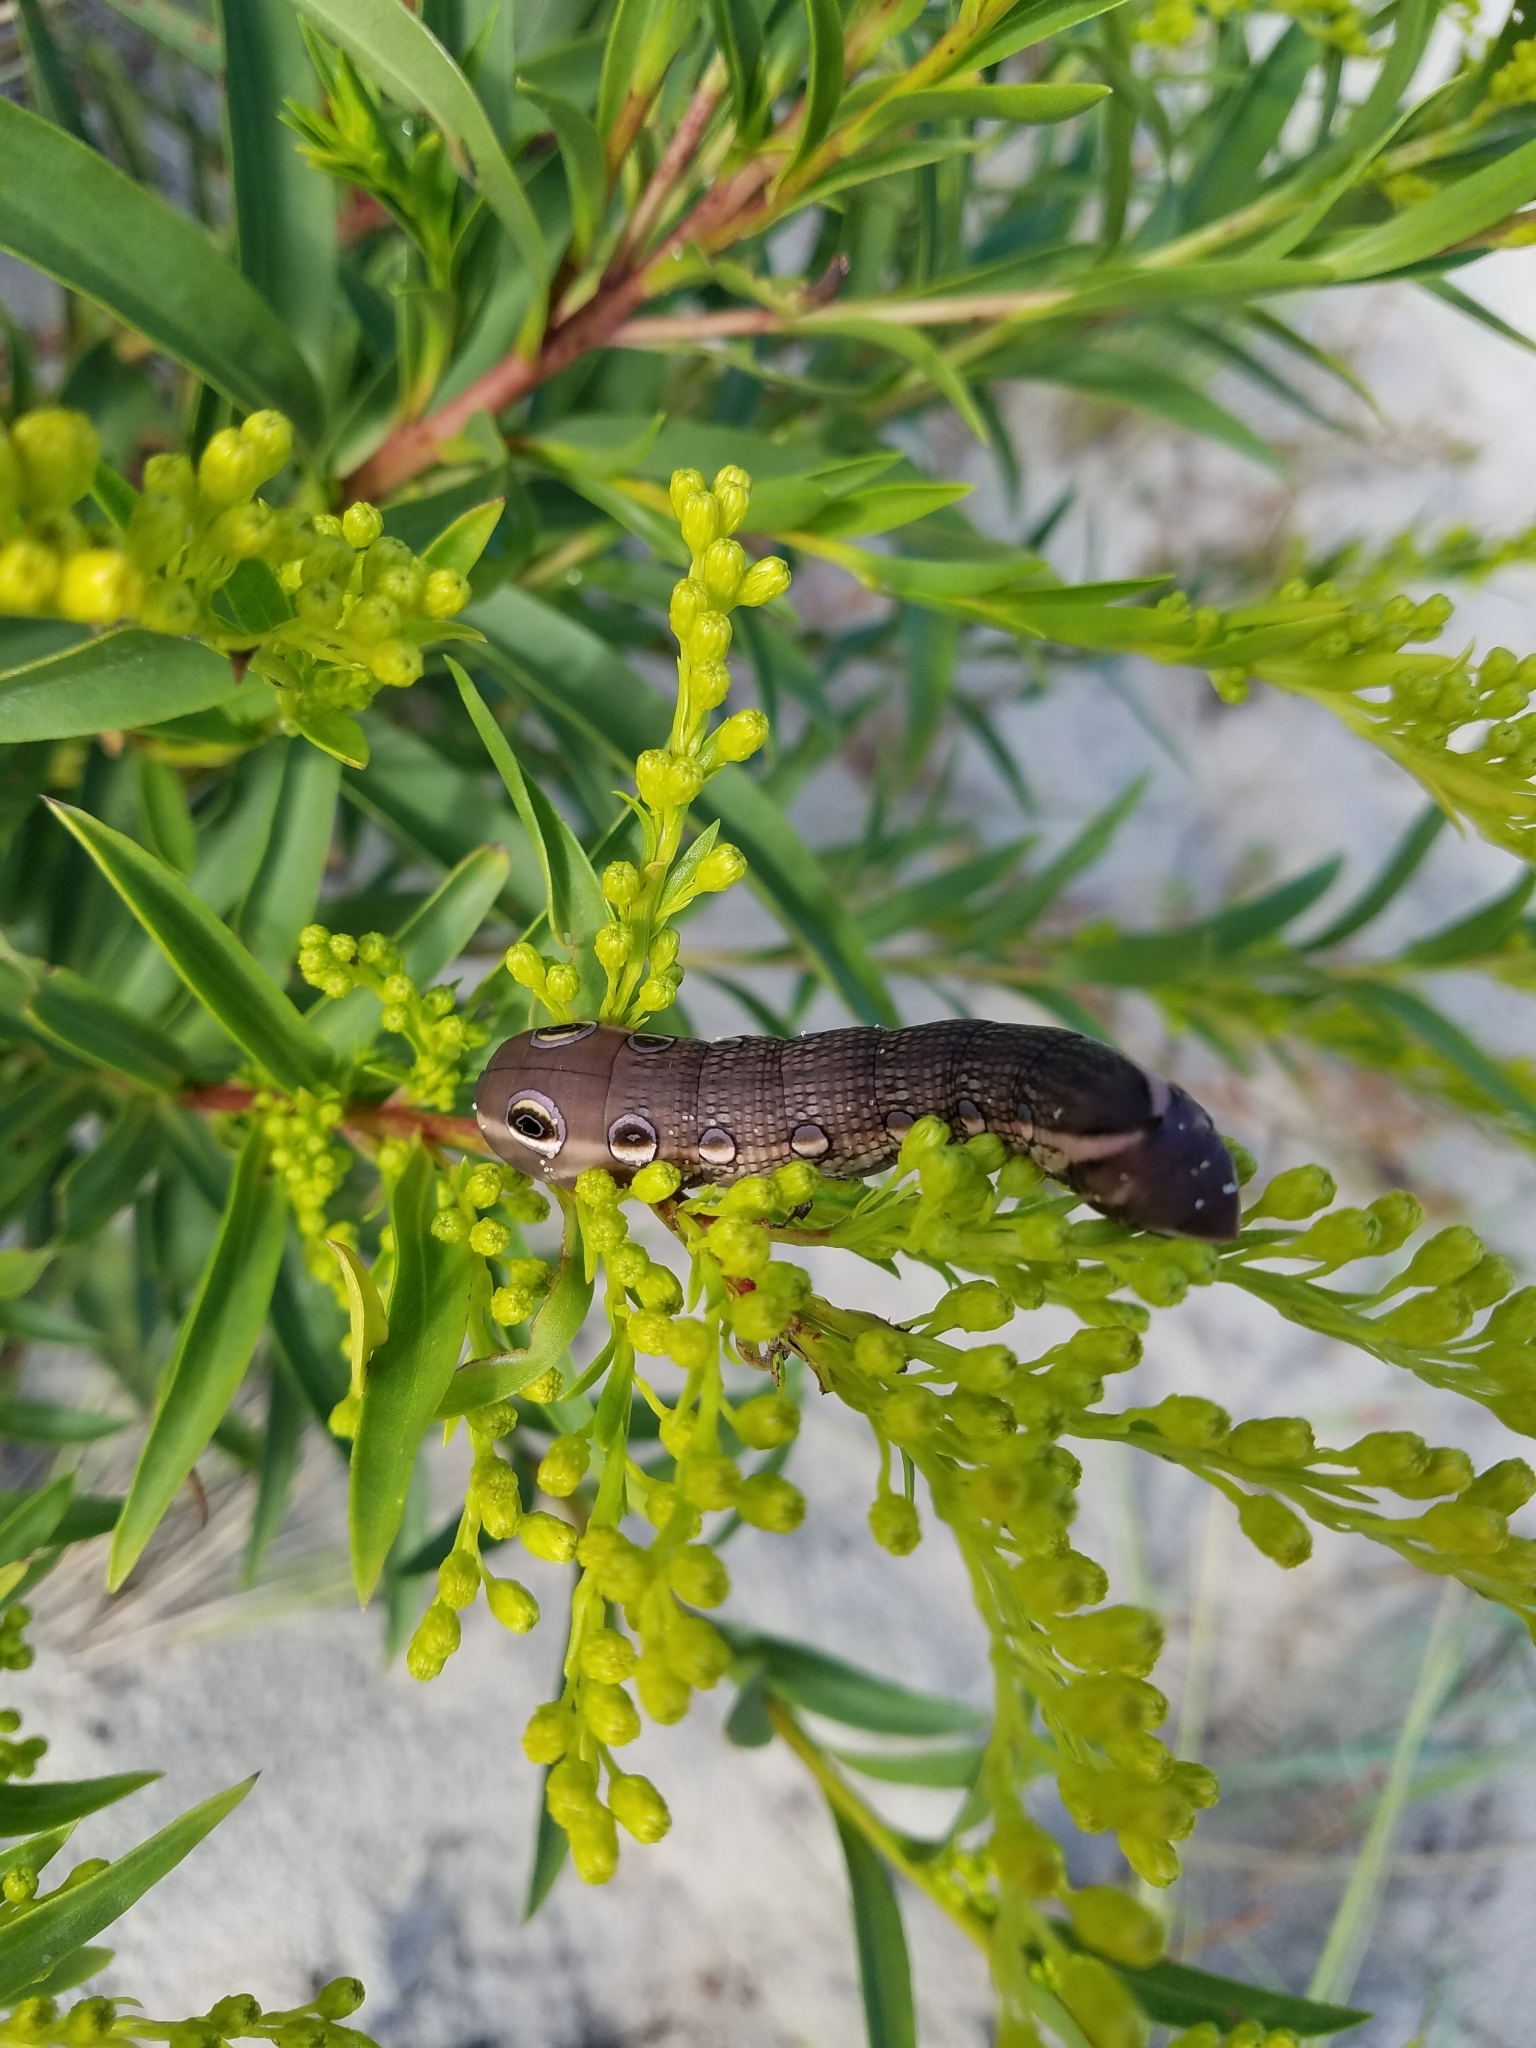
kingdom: Animalia
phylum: Arthropoda
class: Insecta
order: Lepidoptera
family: Sphingidae
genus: Xylophanes
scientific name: Xylophanes tersa
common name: Tersa sphinx
